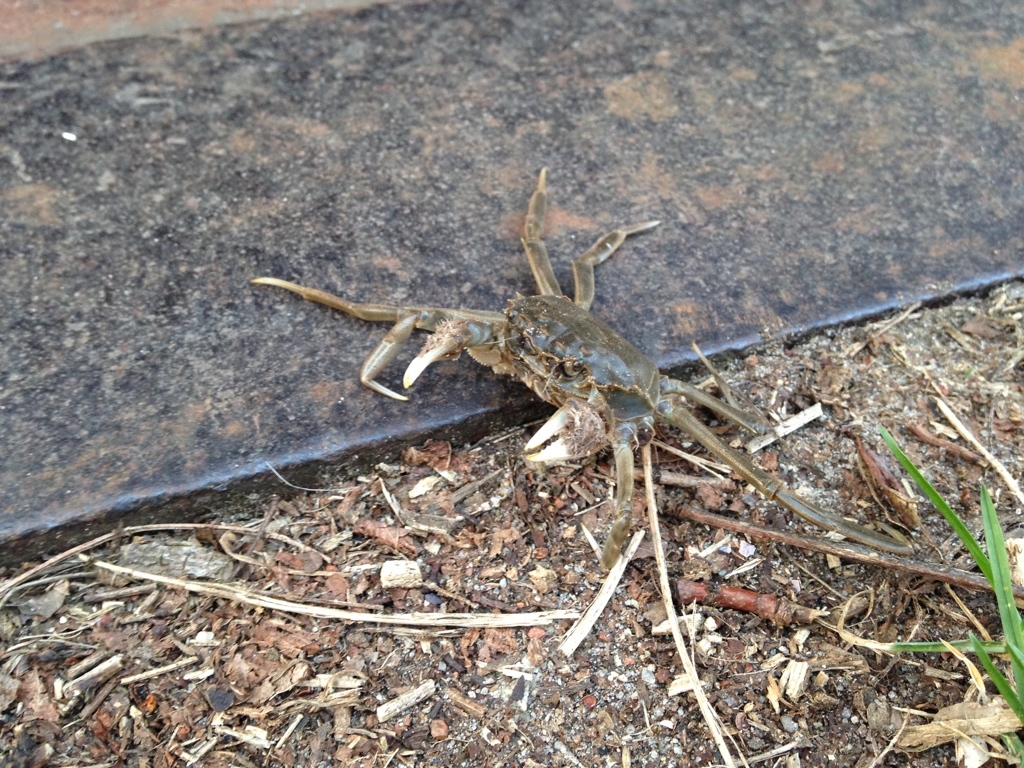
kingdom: Animalia
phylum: Arthropoda
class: Malacostraca
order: Decapoda
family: Varunidae
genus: Eriocheir
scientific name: Eriocheir sinensis
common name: Chinese mitten crab
